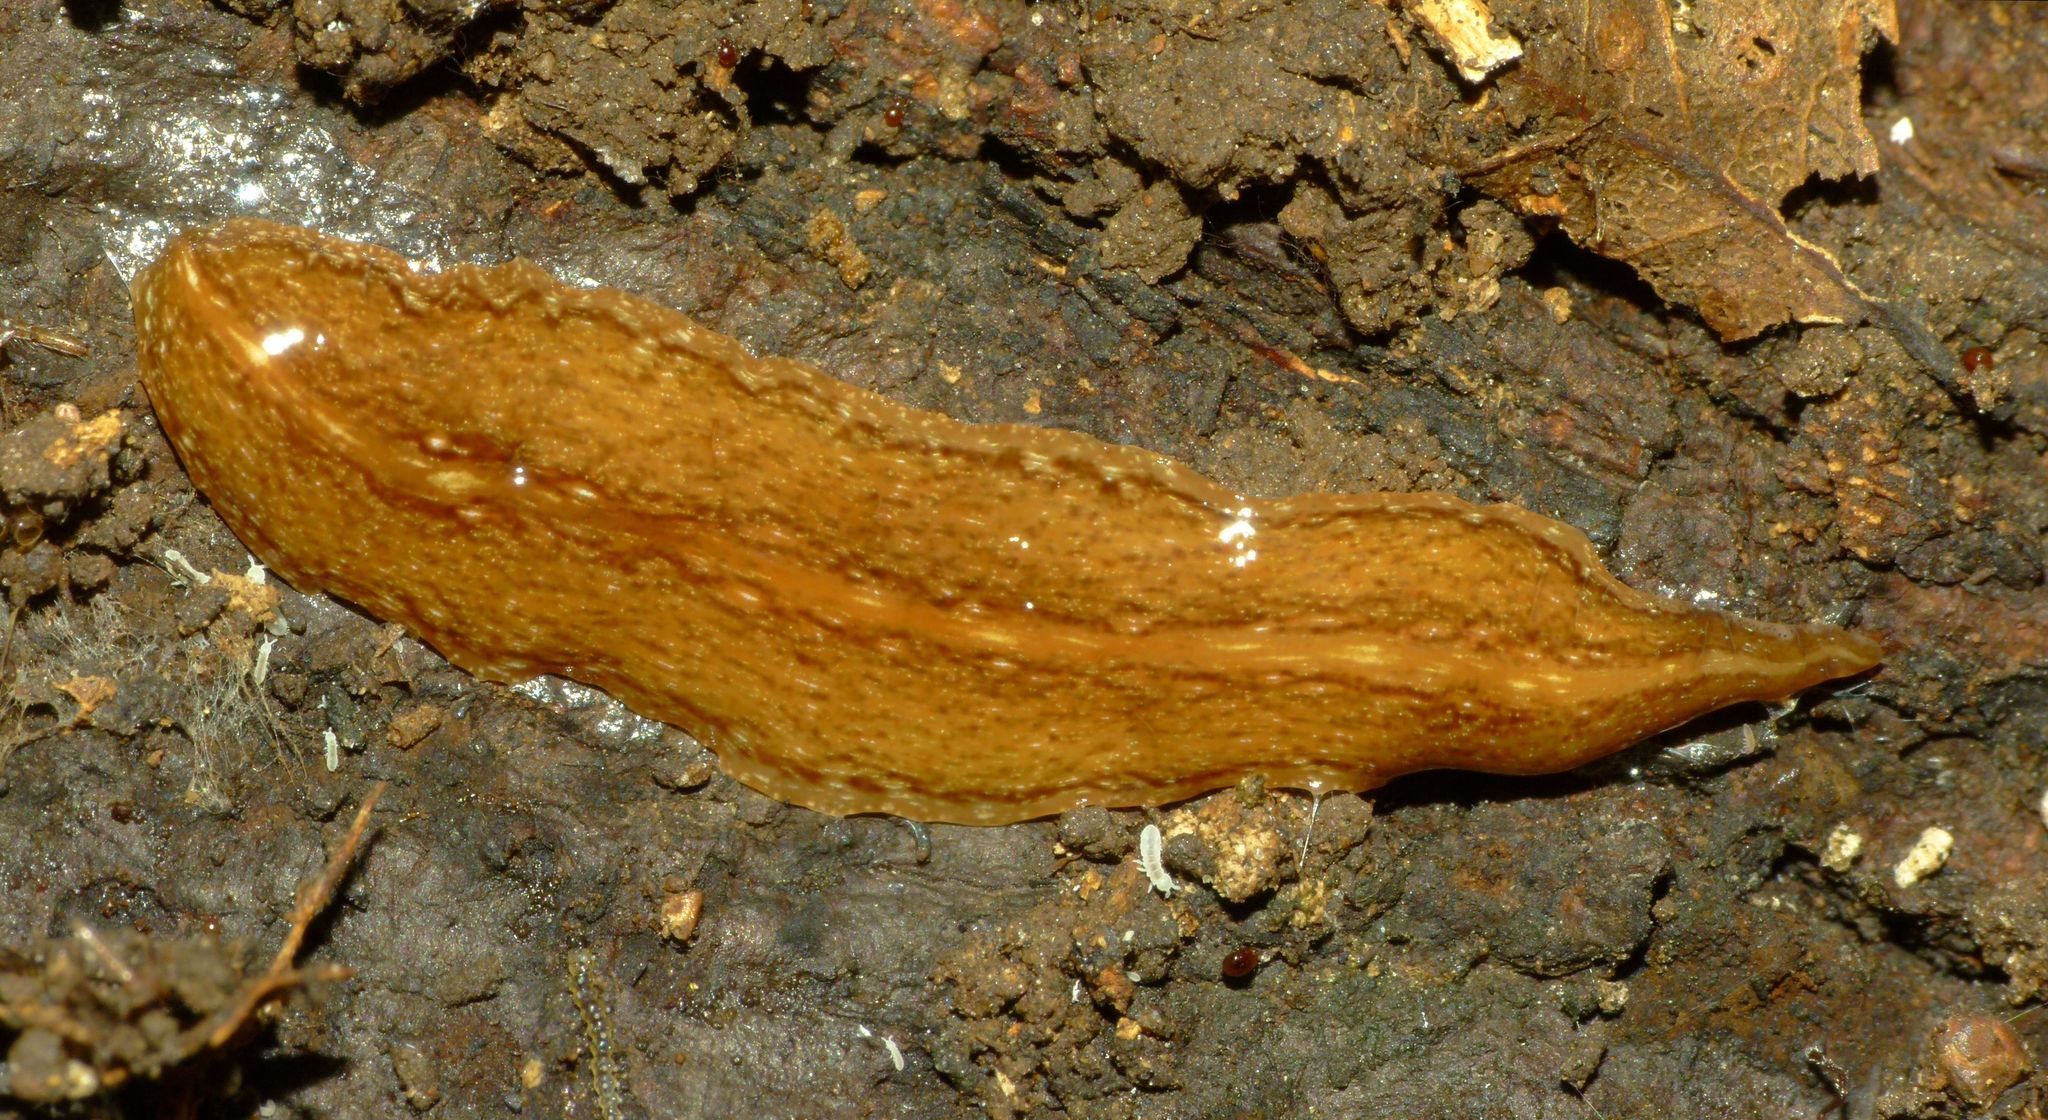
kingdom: Animalia
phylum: Platyhelminthes
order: Tricladida
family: Geoplanidae
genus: Australopacifica
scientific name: Australopacifica
